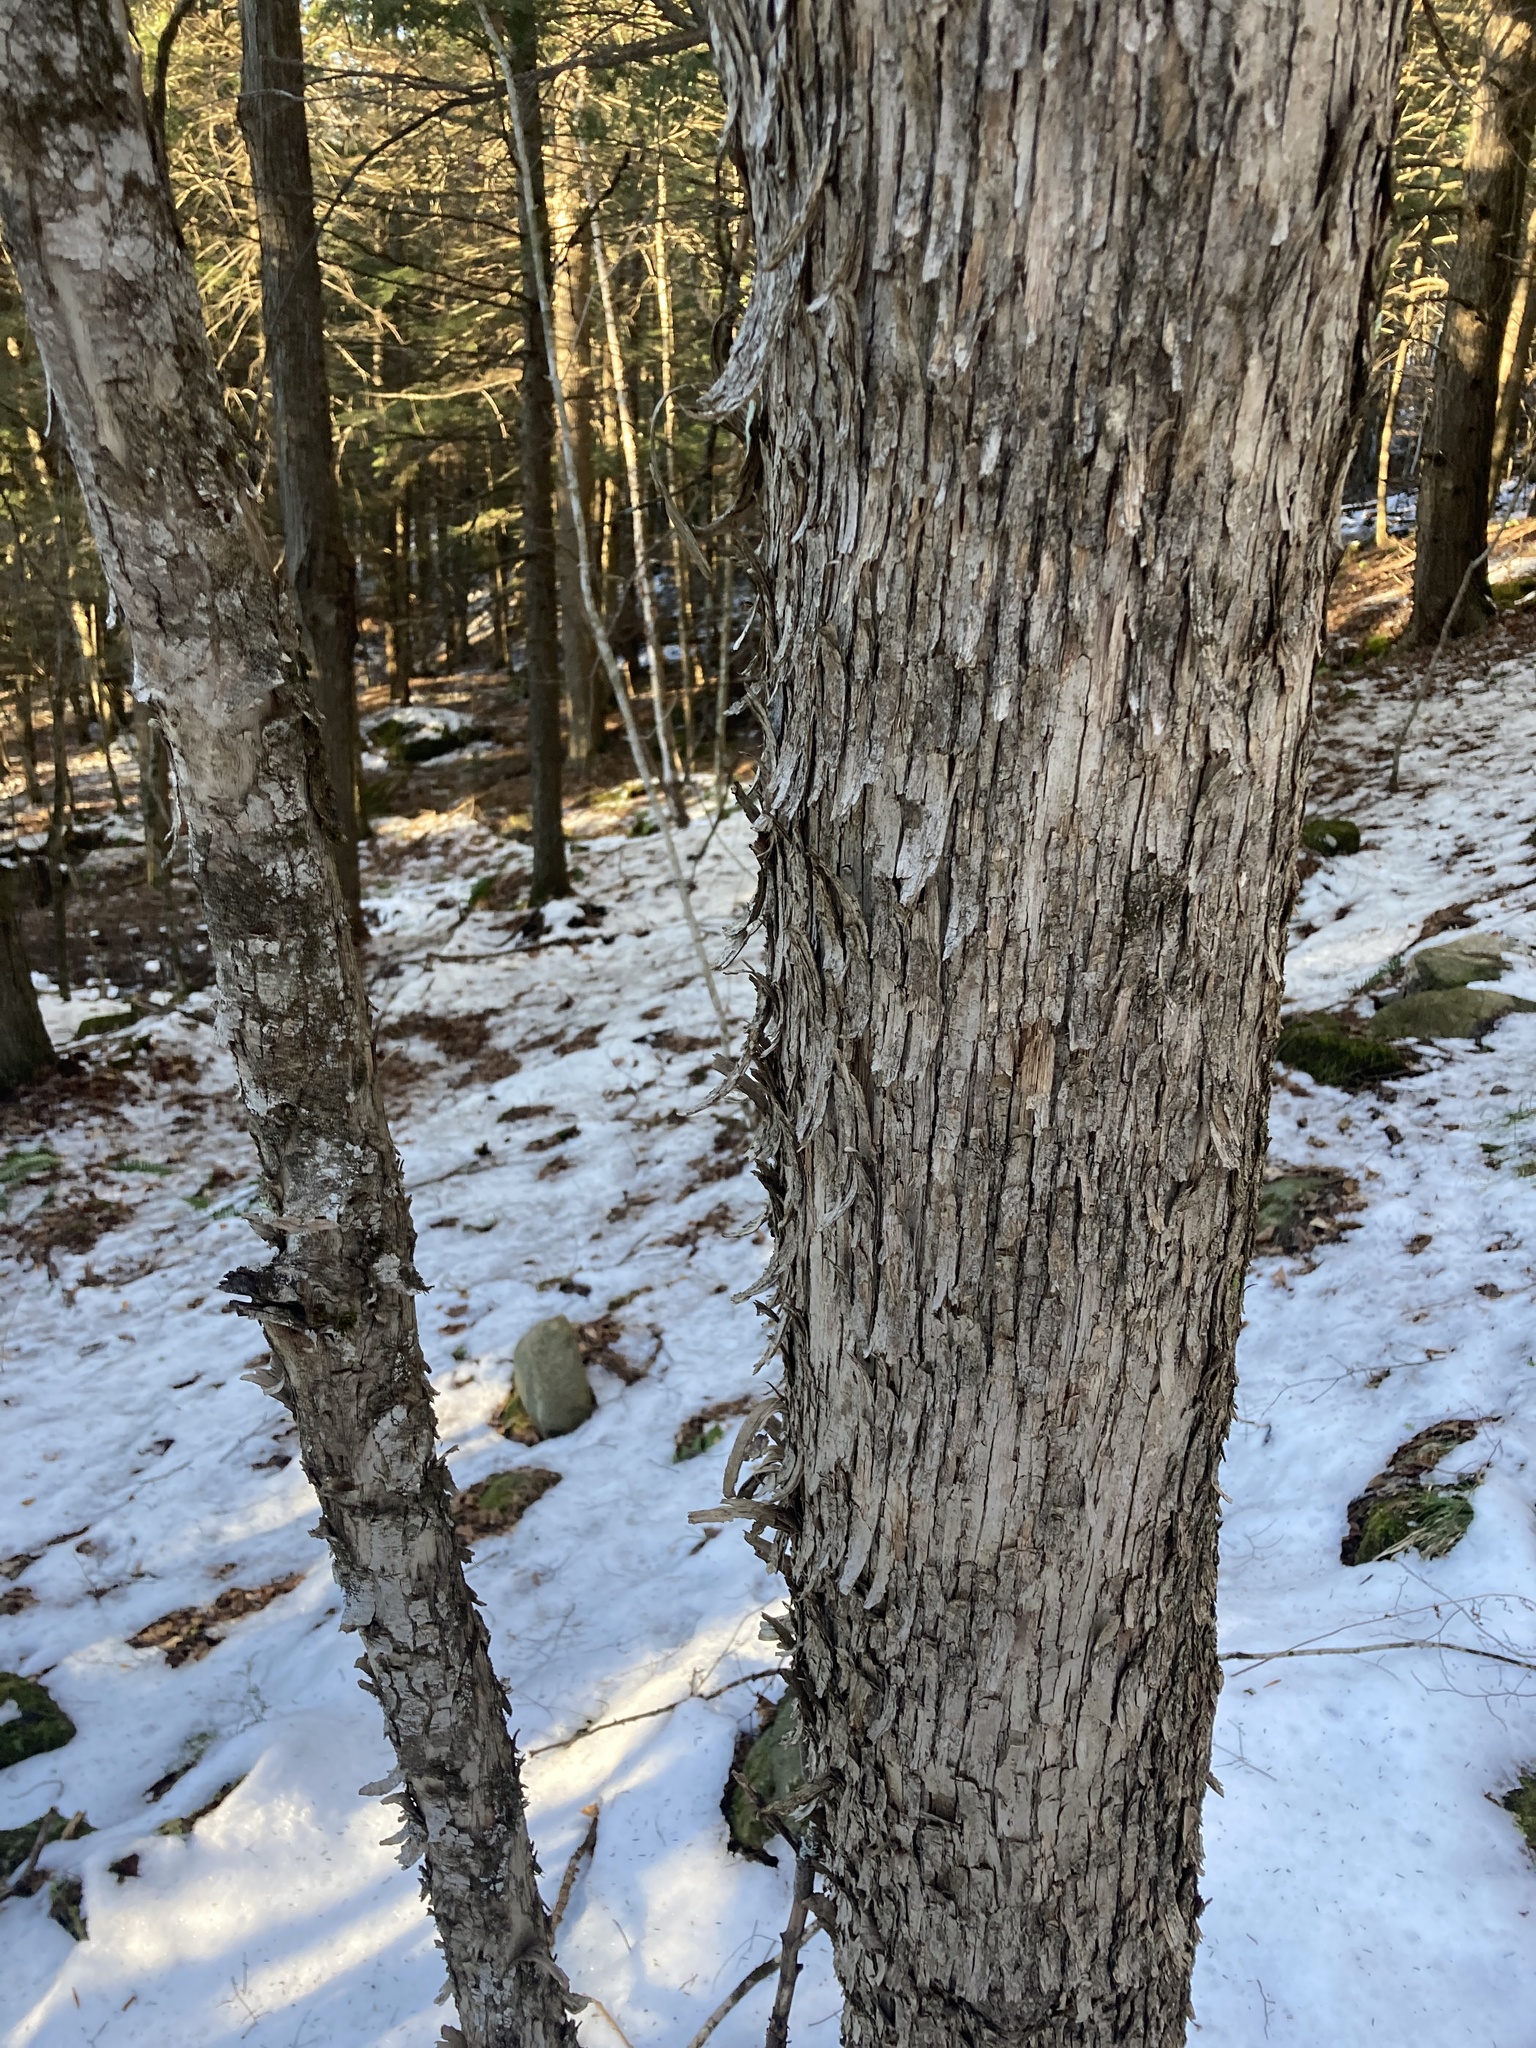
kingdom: Plantae
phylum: Tracheophyta
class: Magnoliopsida
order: Fagales
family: Betulaceae
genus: Ostrya
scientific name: Ostrya virginiana
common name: Ironwood
